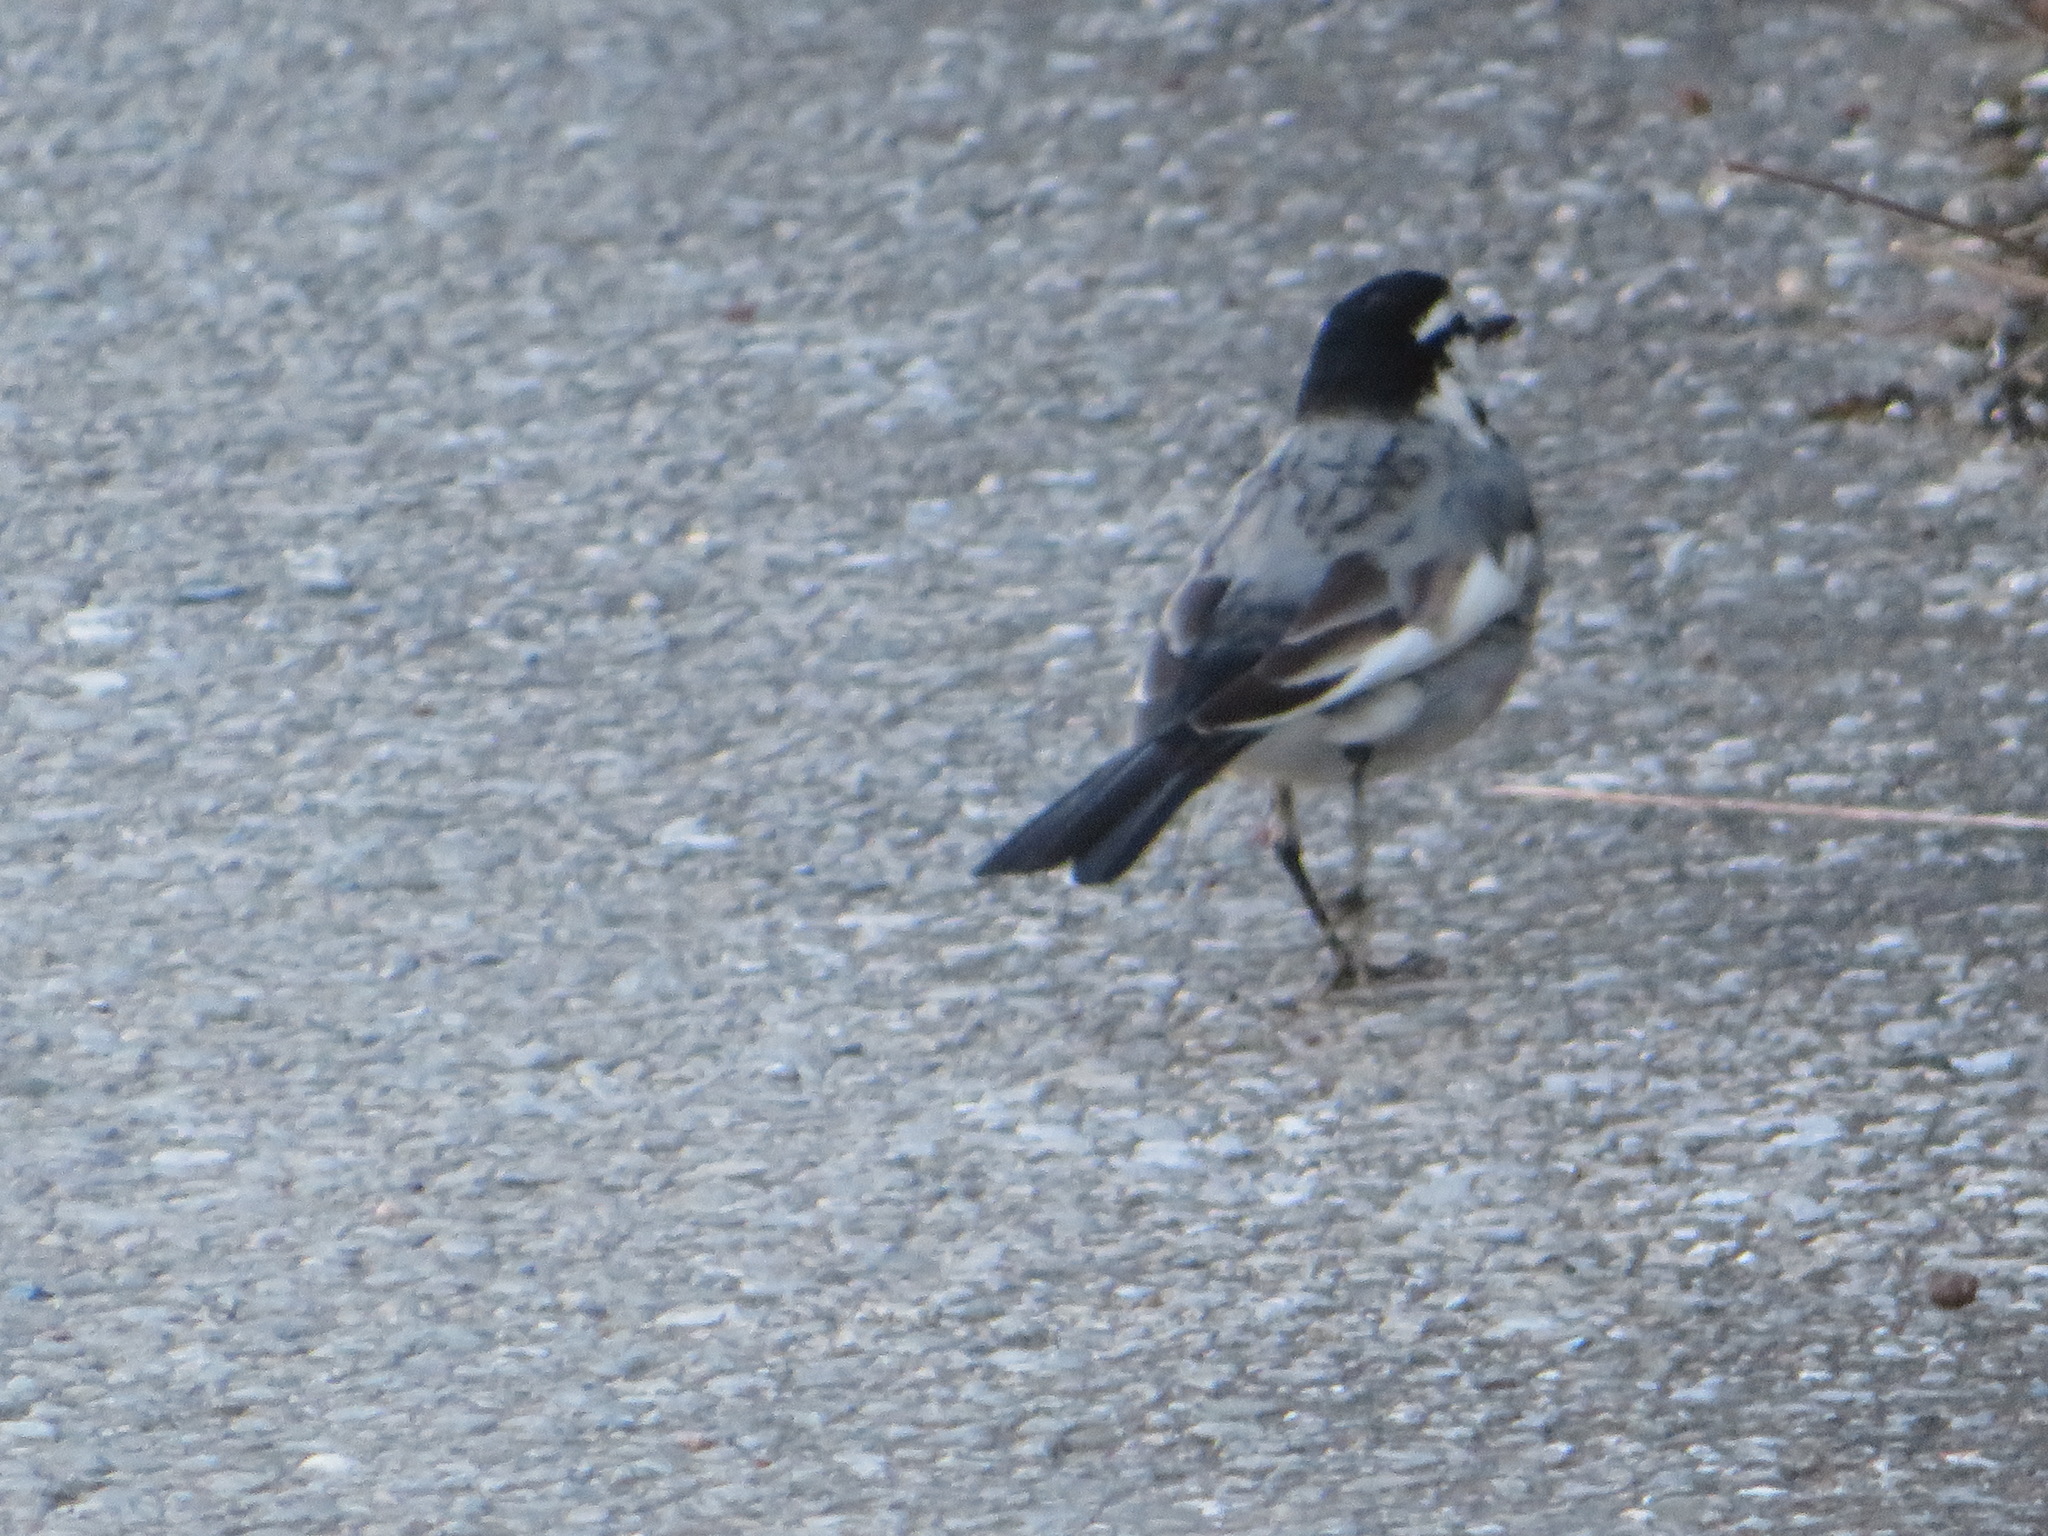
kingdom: Animalia
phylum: Chordata
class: Aves
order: Passeriformes
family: Motacillidae
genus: Motacilla
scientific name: Motacilla alba
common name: White wagtail
